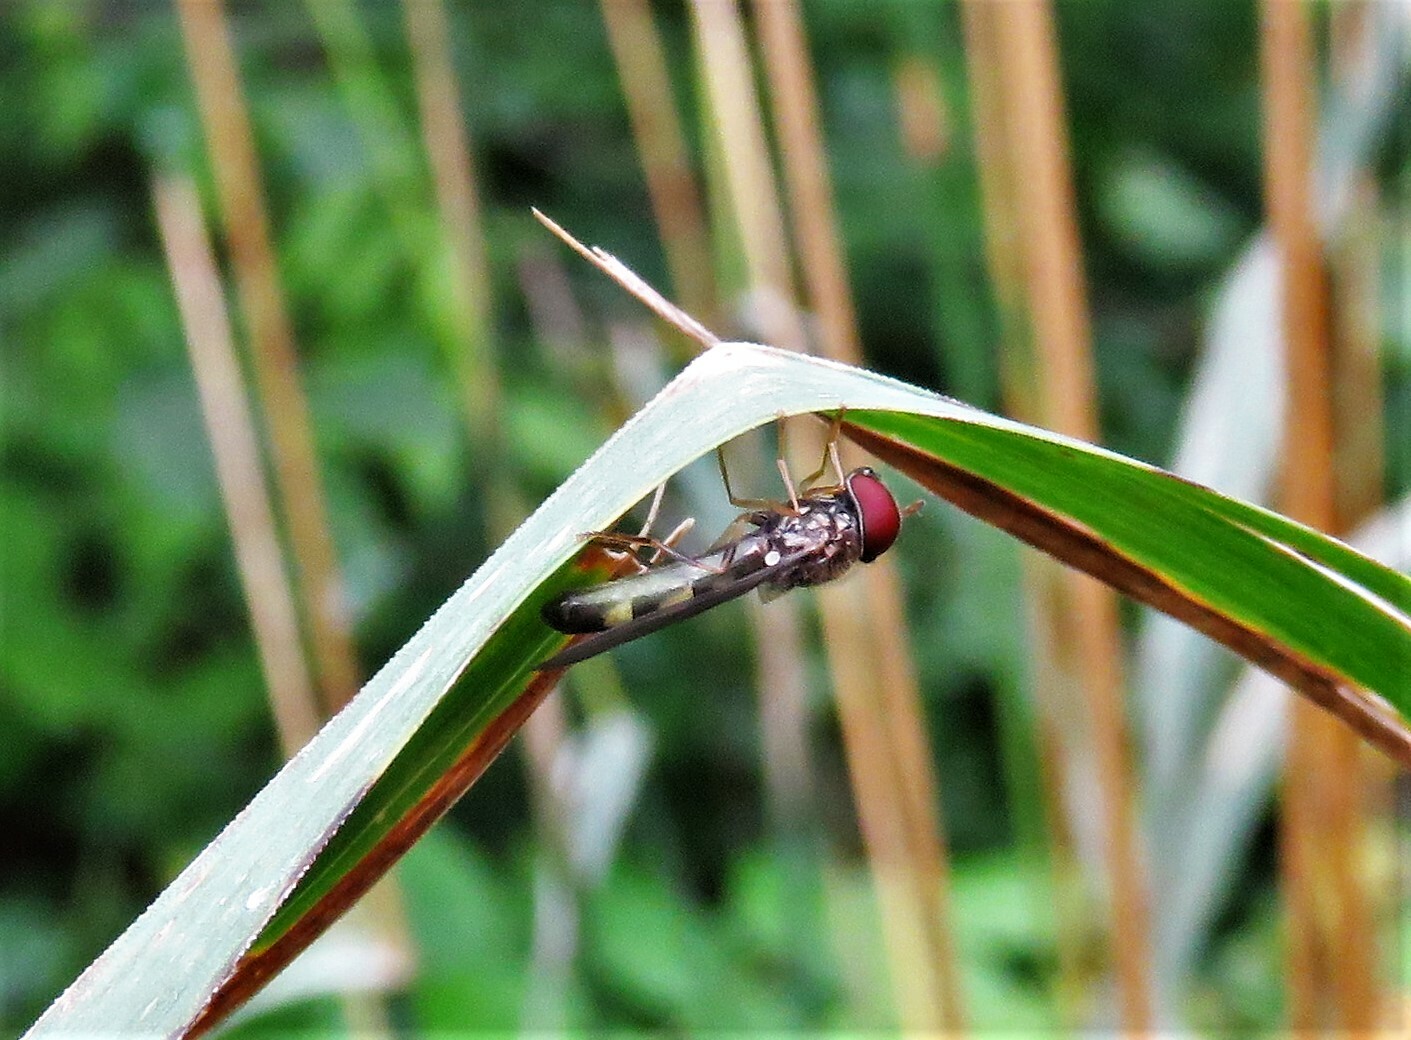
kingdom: Animalia
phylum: Arthropoda
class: Insecta
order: Diptera
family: Syrphidae
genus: Melanostoma
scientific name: Melanostoma mellina
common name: Hover fly
